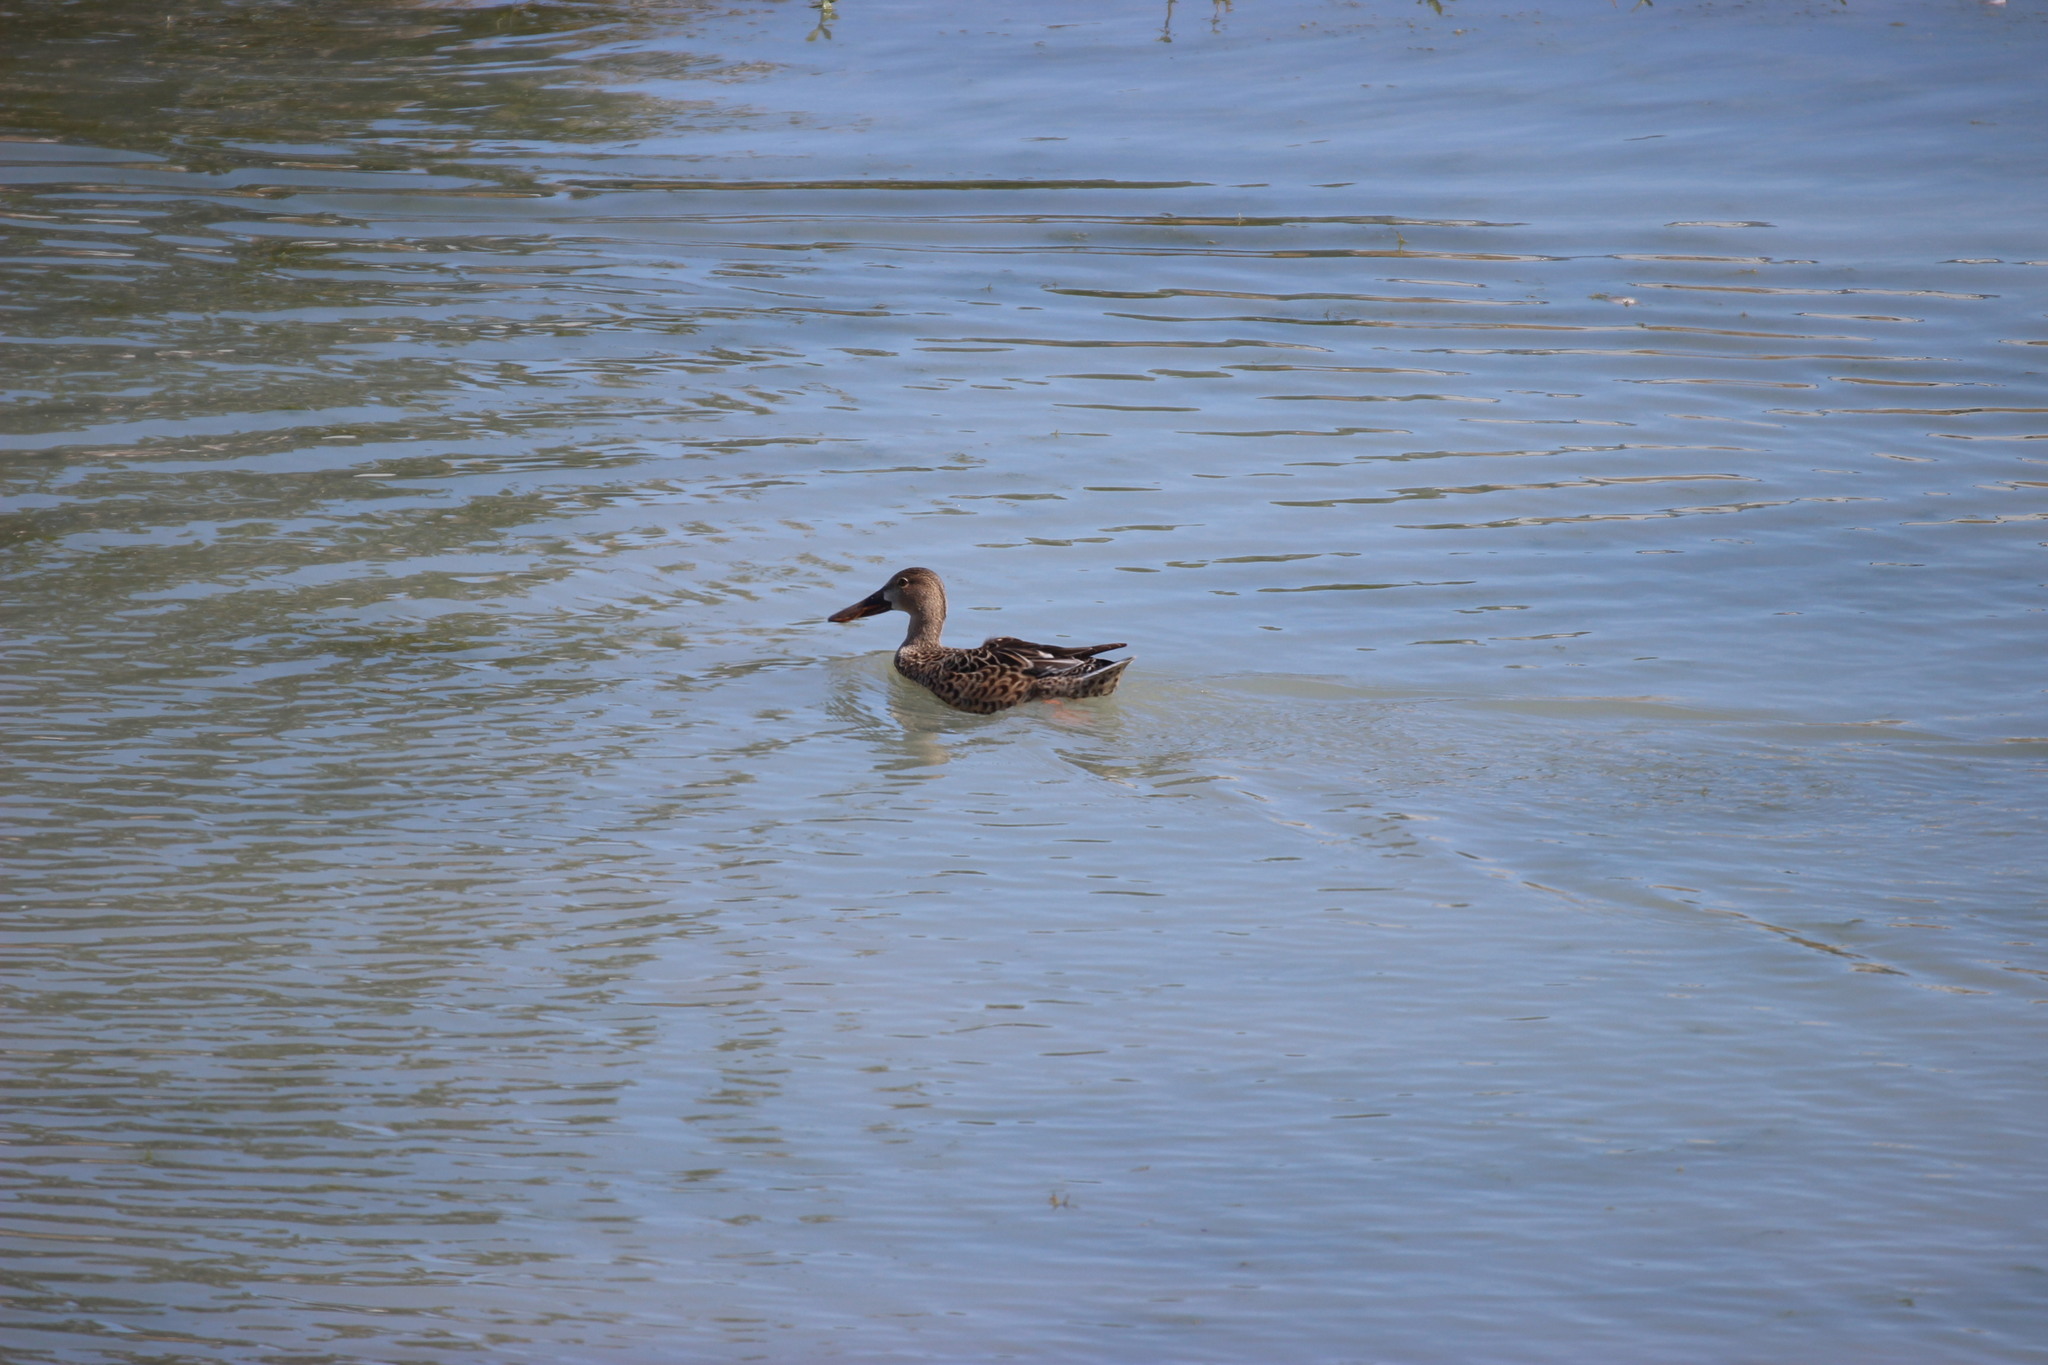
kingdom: Animalia
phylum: Chordata
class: Aves
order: Anseriformes
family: Anatidae
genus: Spatula
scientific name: Spatula clypeata
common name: Northern shoveler
